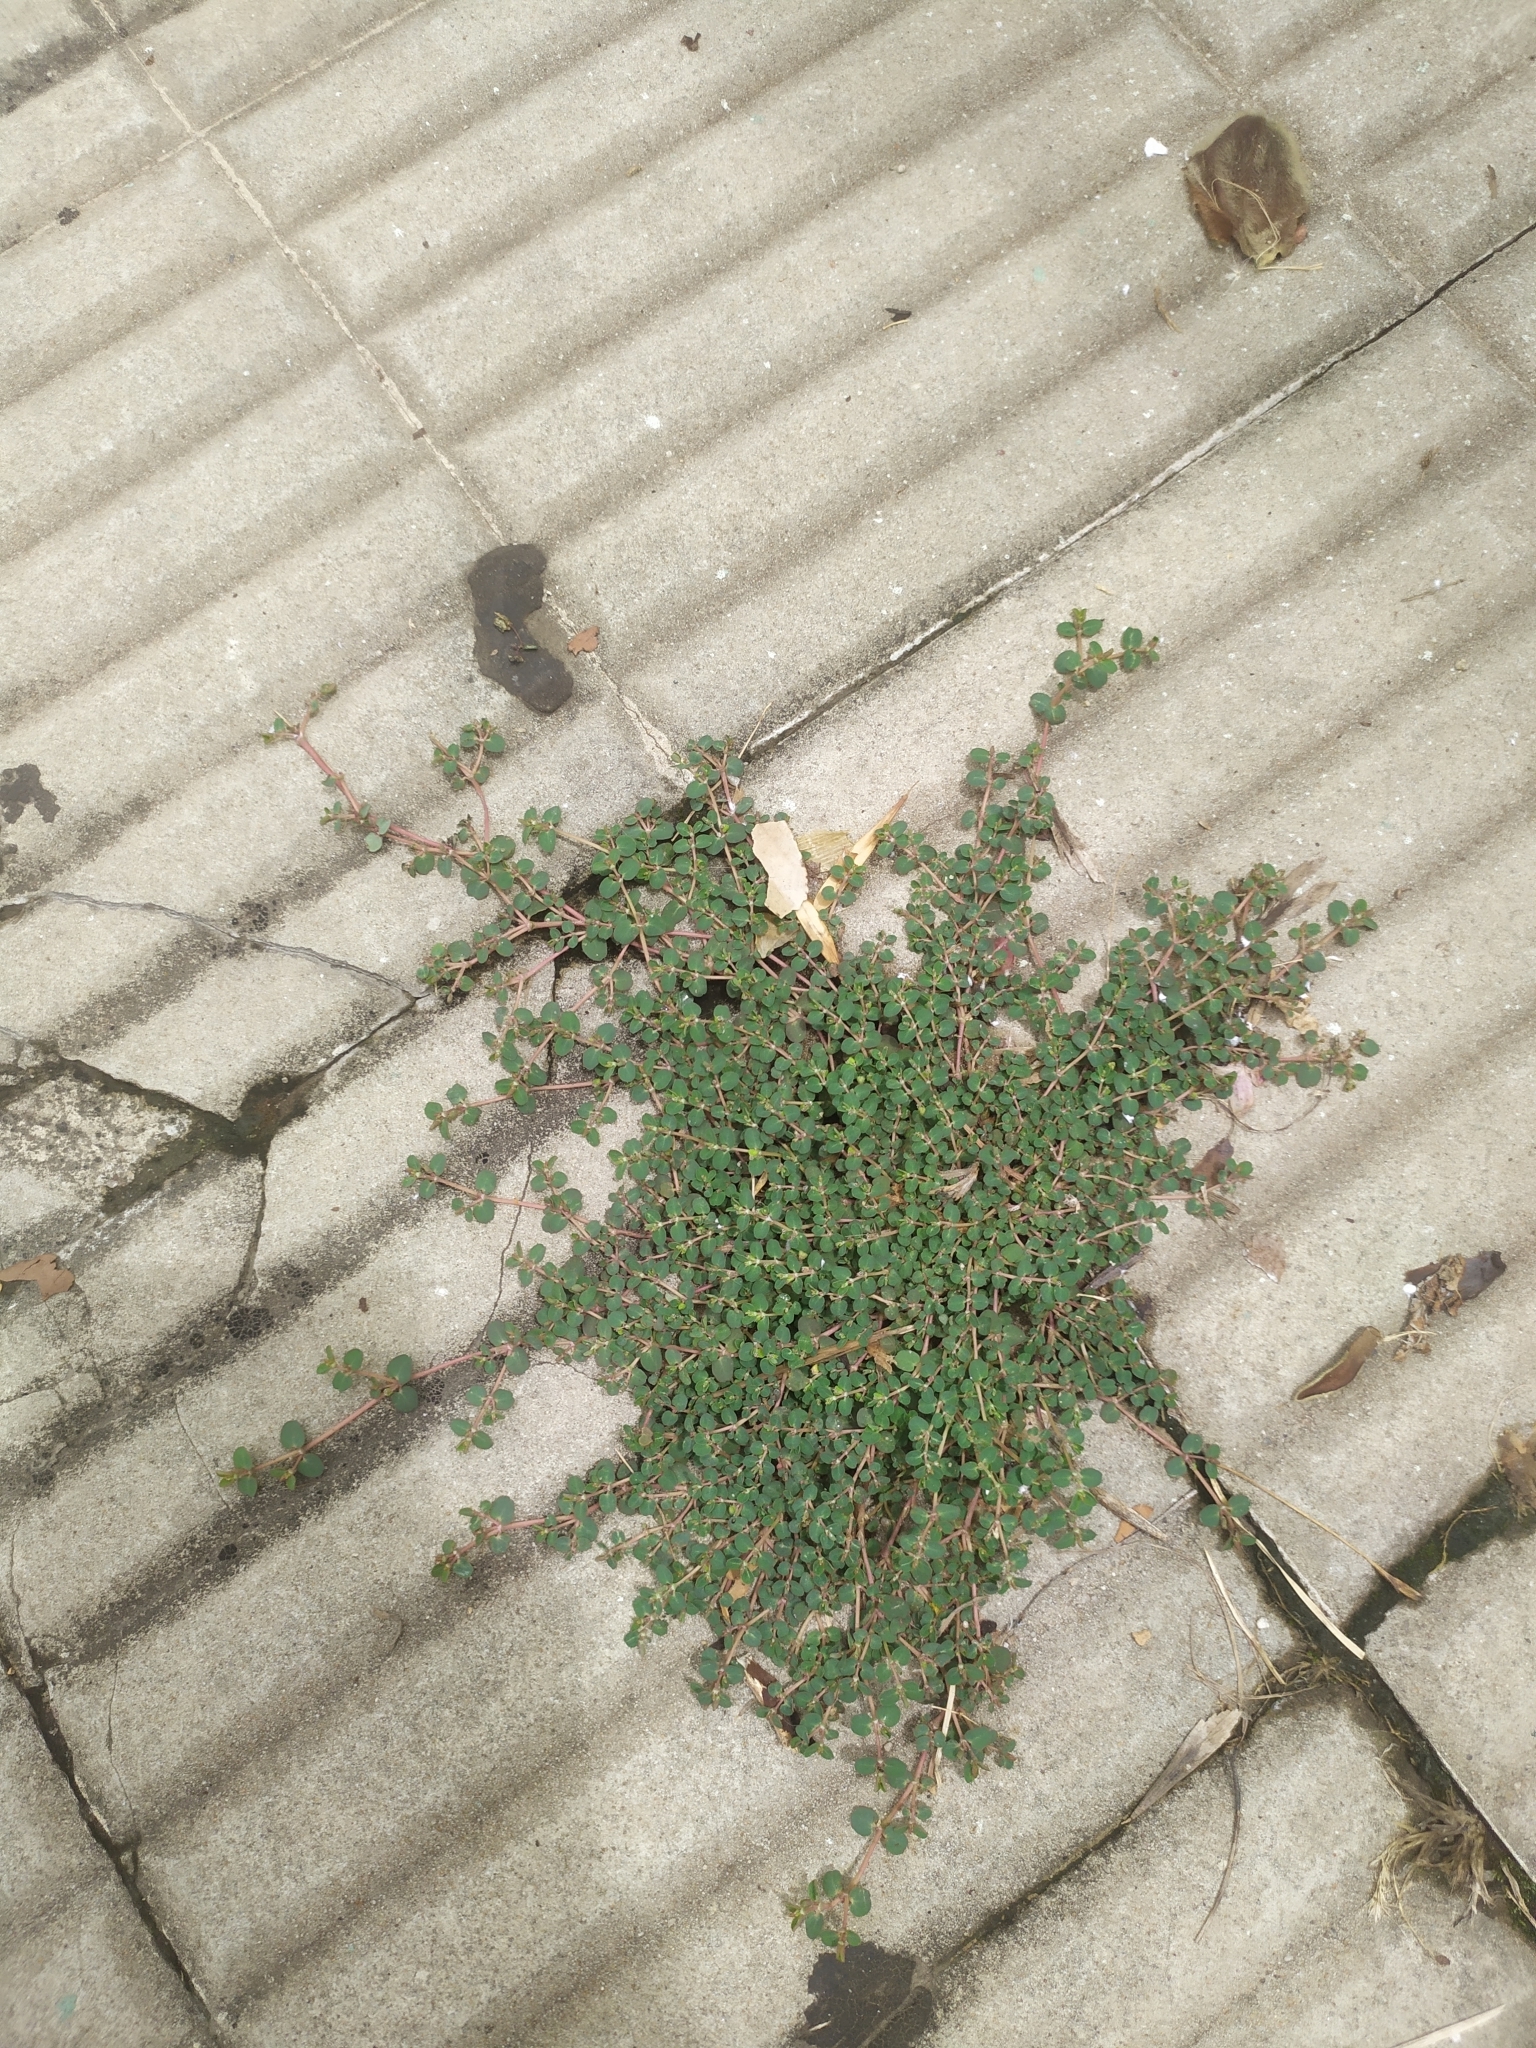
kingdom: Plantae
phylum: Tracheophyta
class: Magnoliopsida
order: Malpighiales
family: Euphorbiaceae
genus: Euphorbia
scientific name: Euphorbia serpens
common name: Matted sandmat
